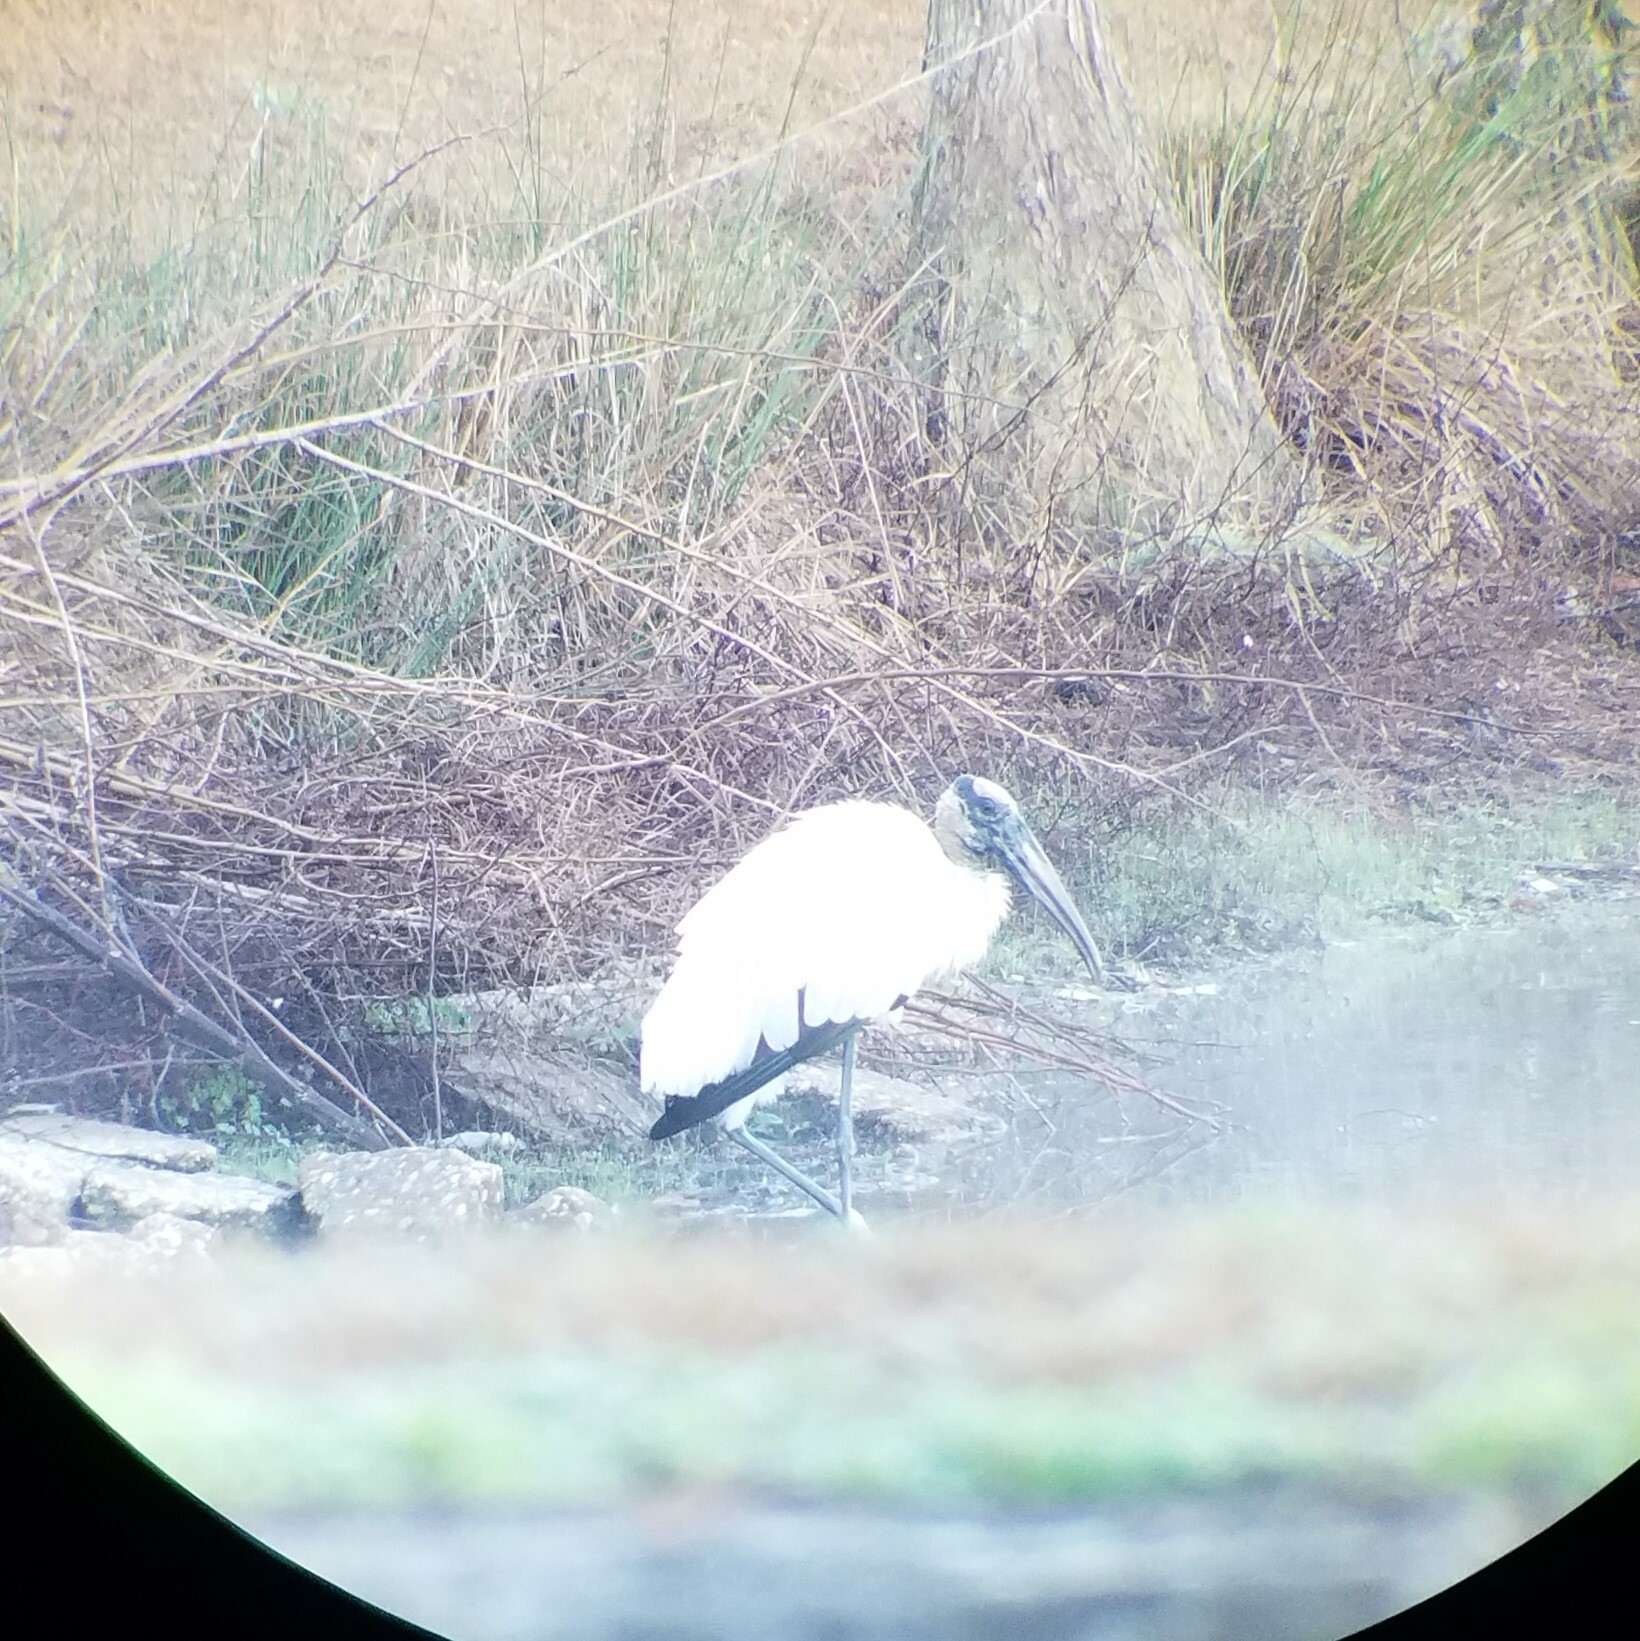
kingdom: Animalia
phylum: Chordata
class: Aves
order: Ciconiiformes
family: Ciconiidae
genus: Mycteria
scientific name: Mycteria americana
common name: Wood stork
